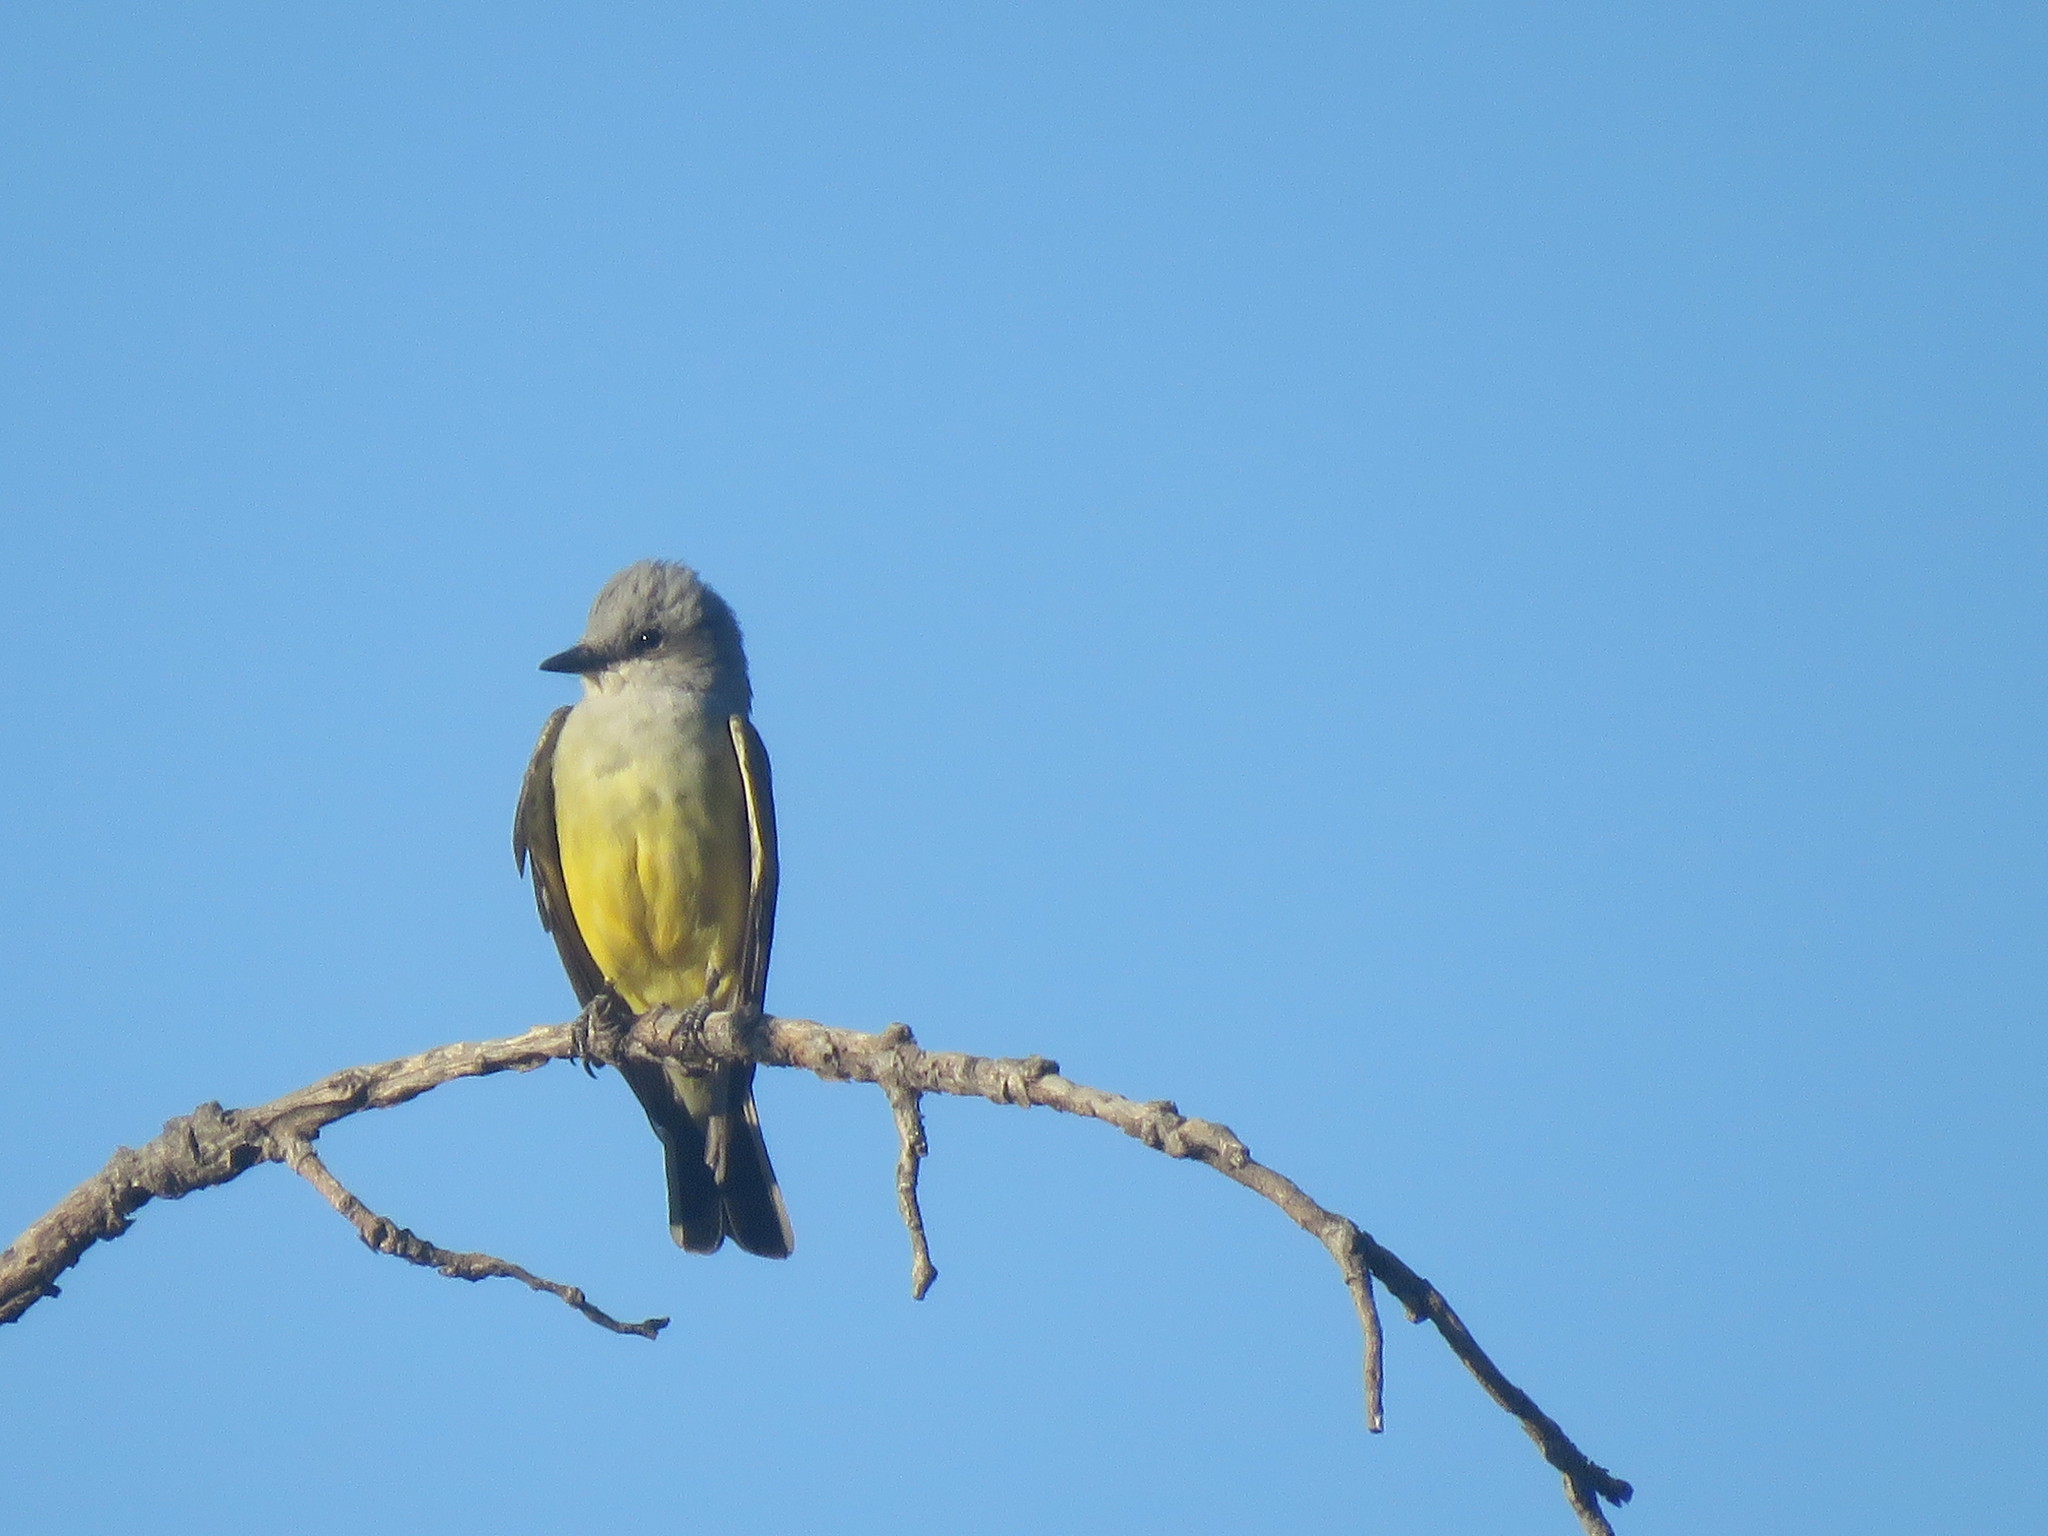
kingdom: Animalia
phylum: Chordata
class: Aves
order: Passeriformes
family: Tyrannidae
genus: Tyrannus
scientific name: Tyrannus verticalis
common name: Western kingbird
